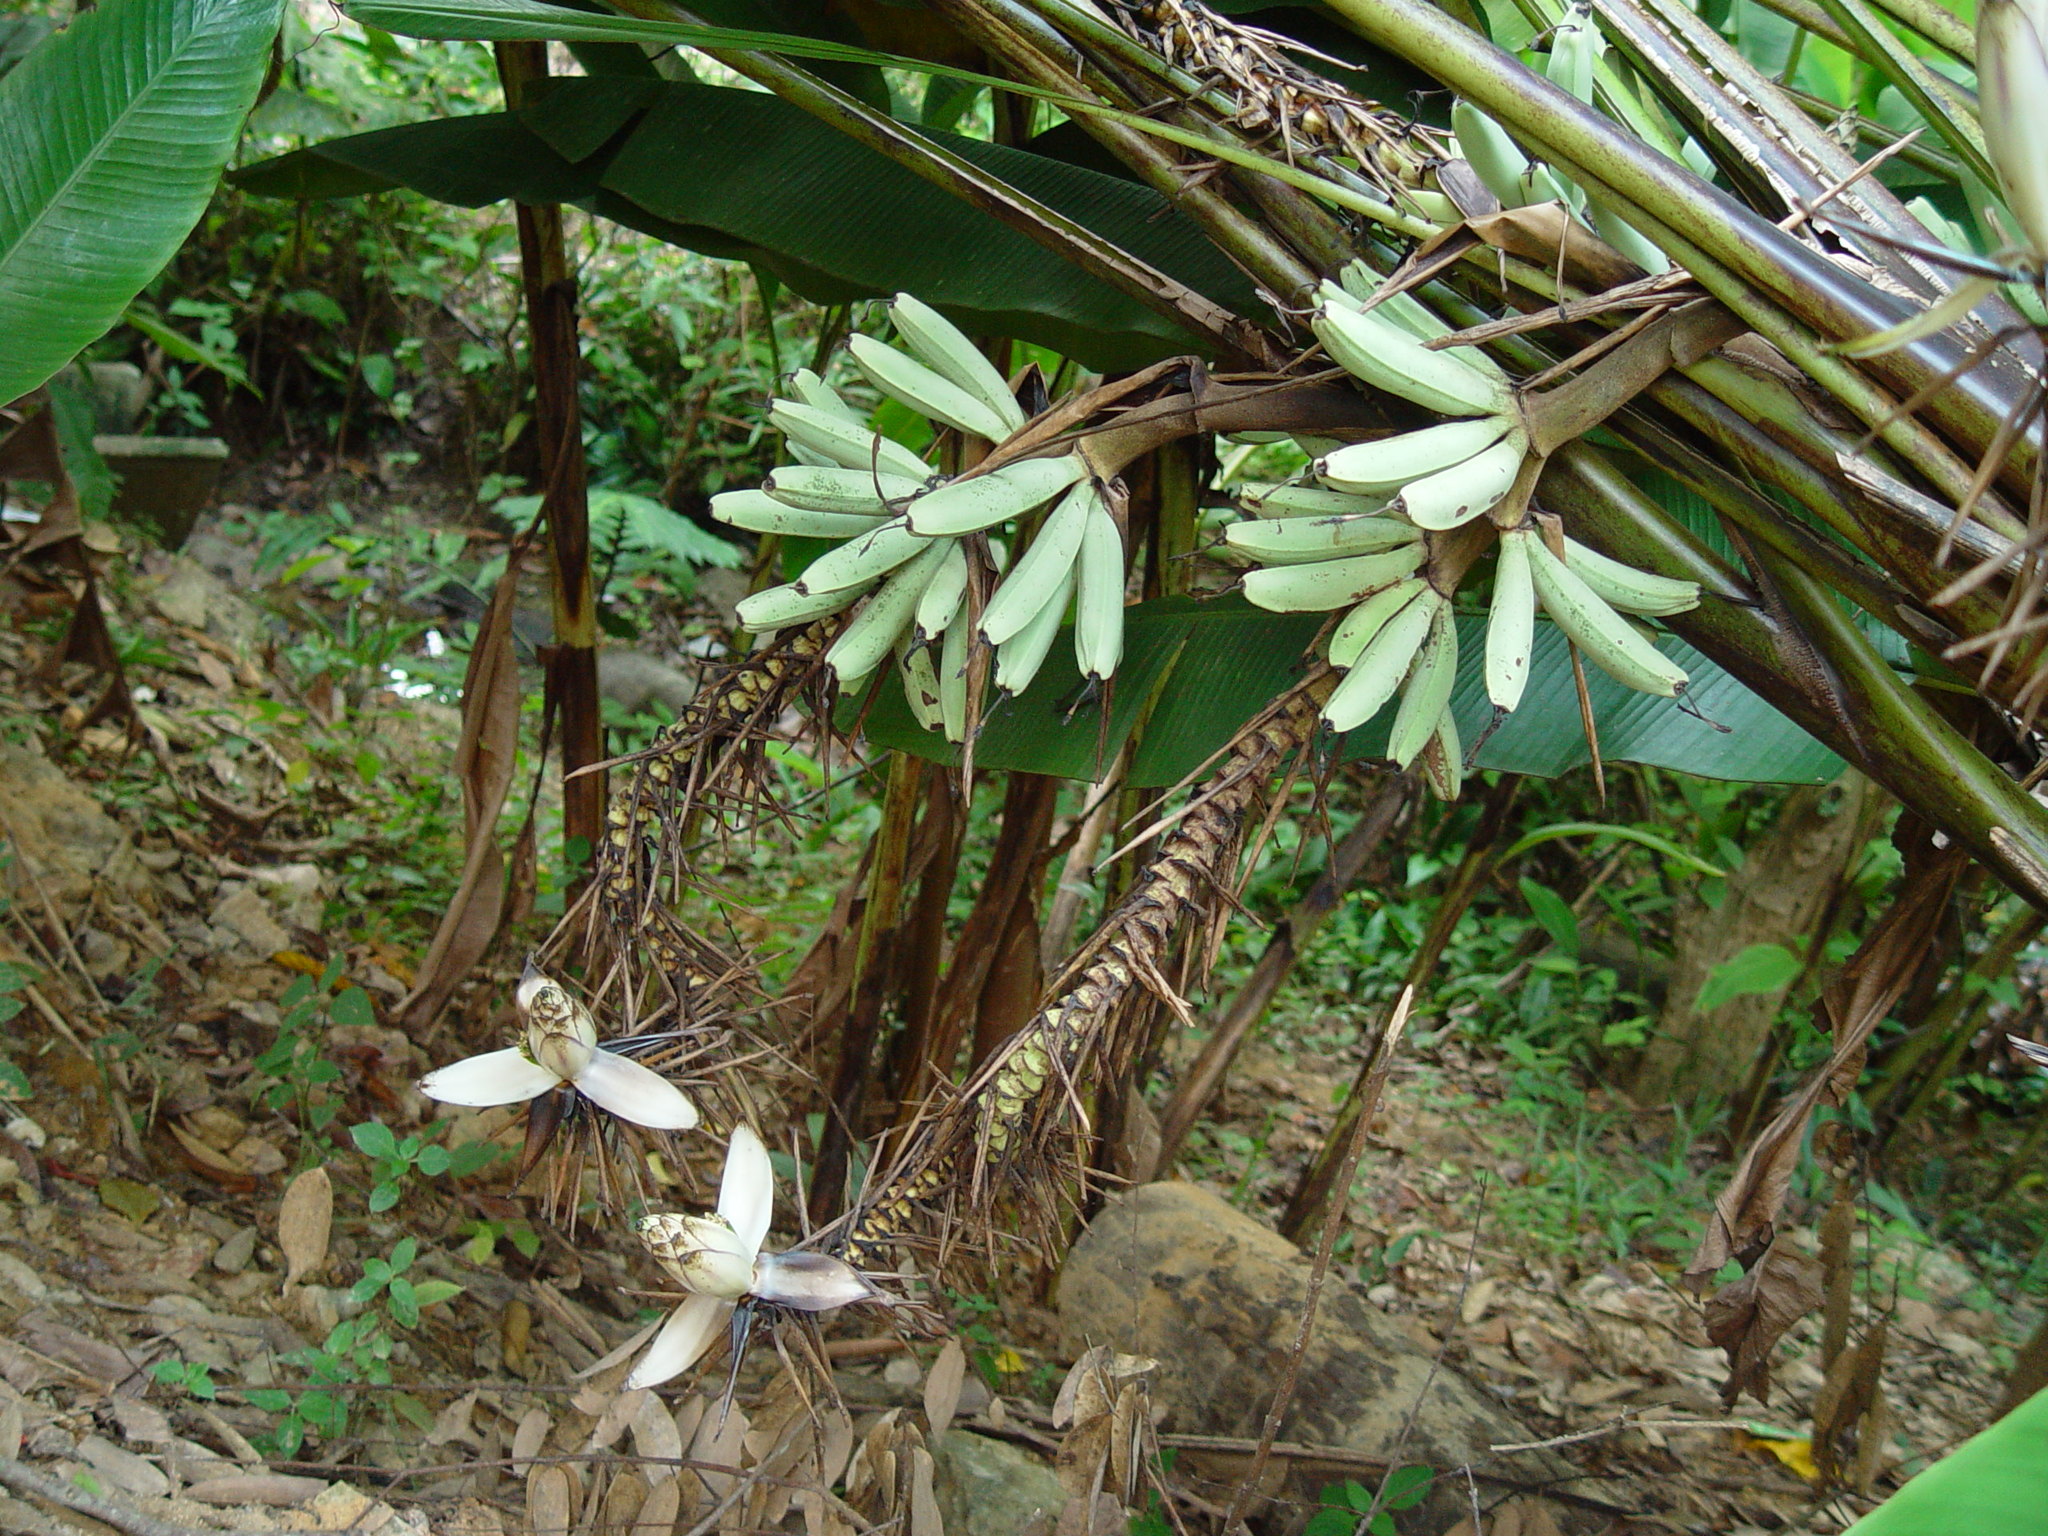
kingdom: Plantae
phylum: Tracheophyta
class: Liliopsida
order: Zingiberales
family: Musaceae
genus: Musa
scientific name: Musa gracilis
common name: Johore banana
